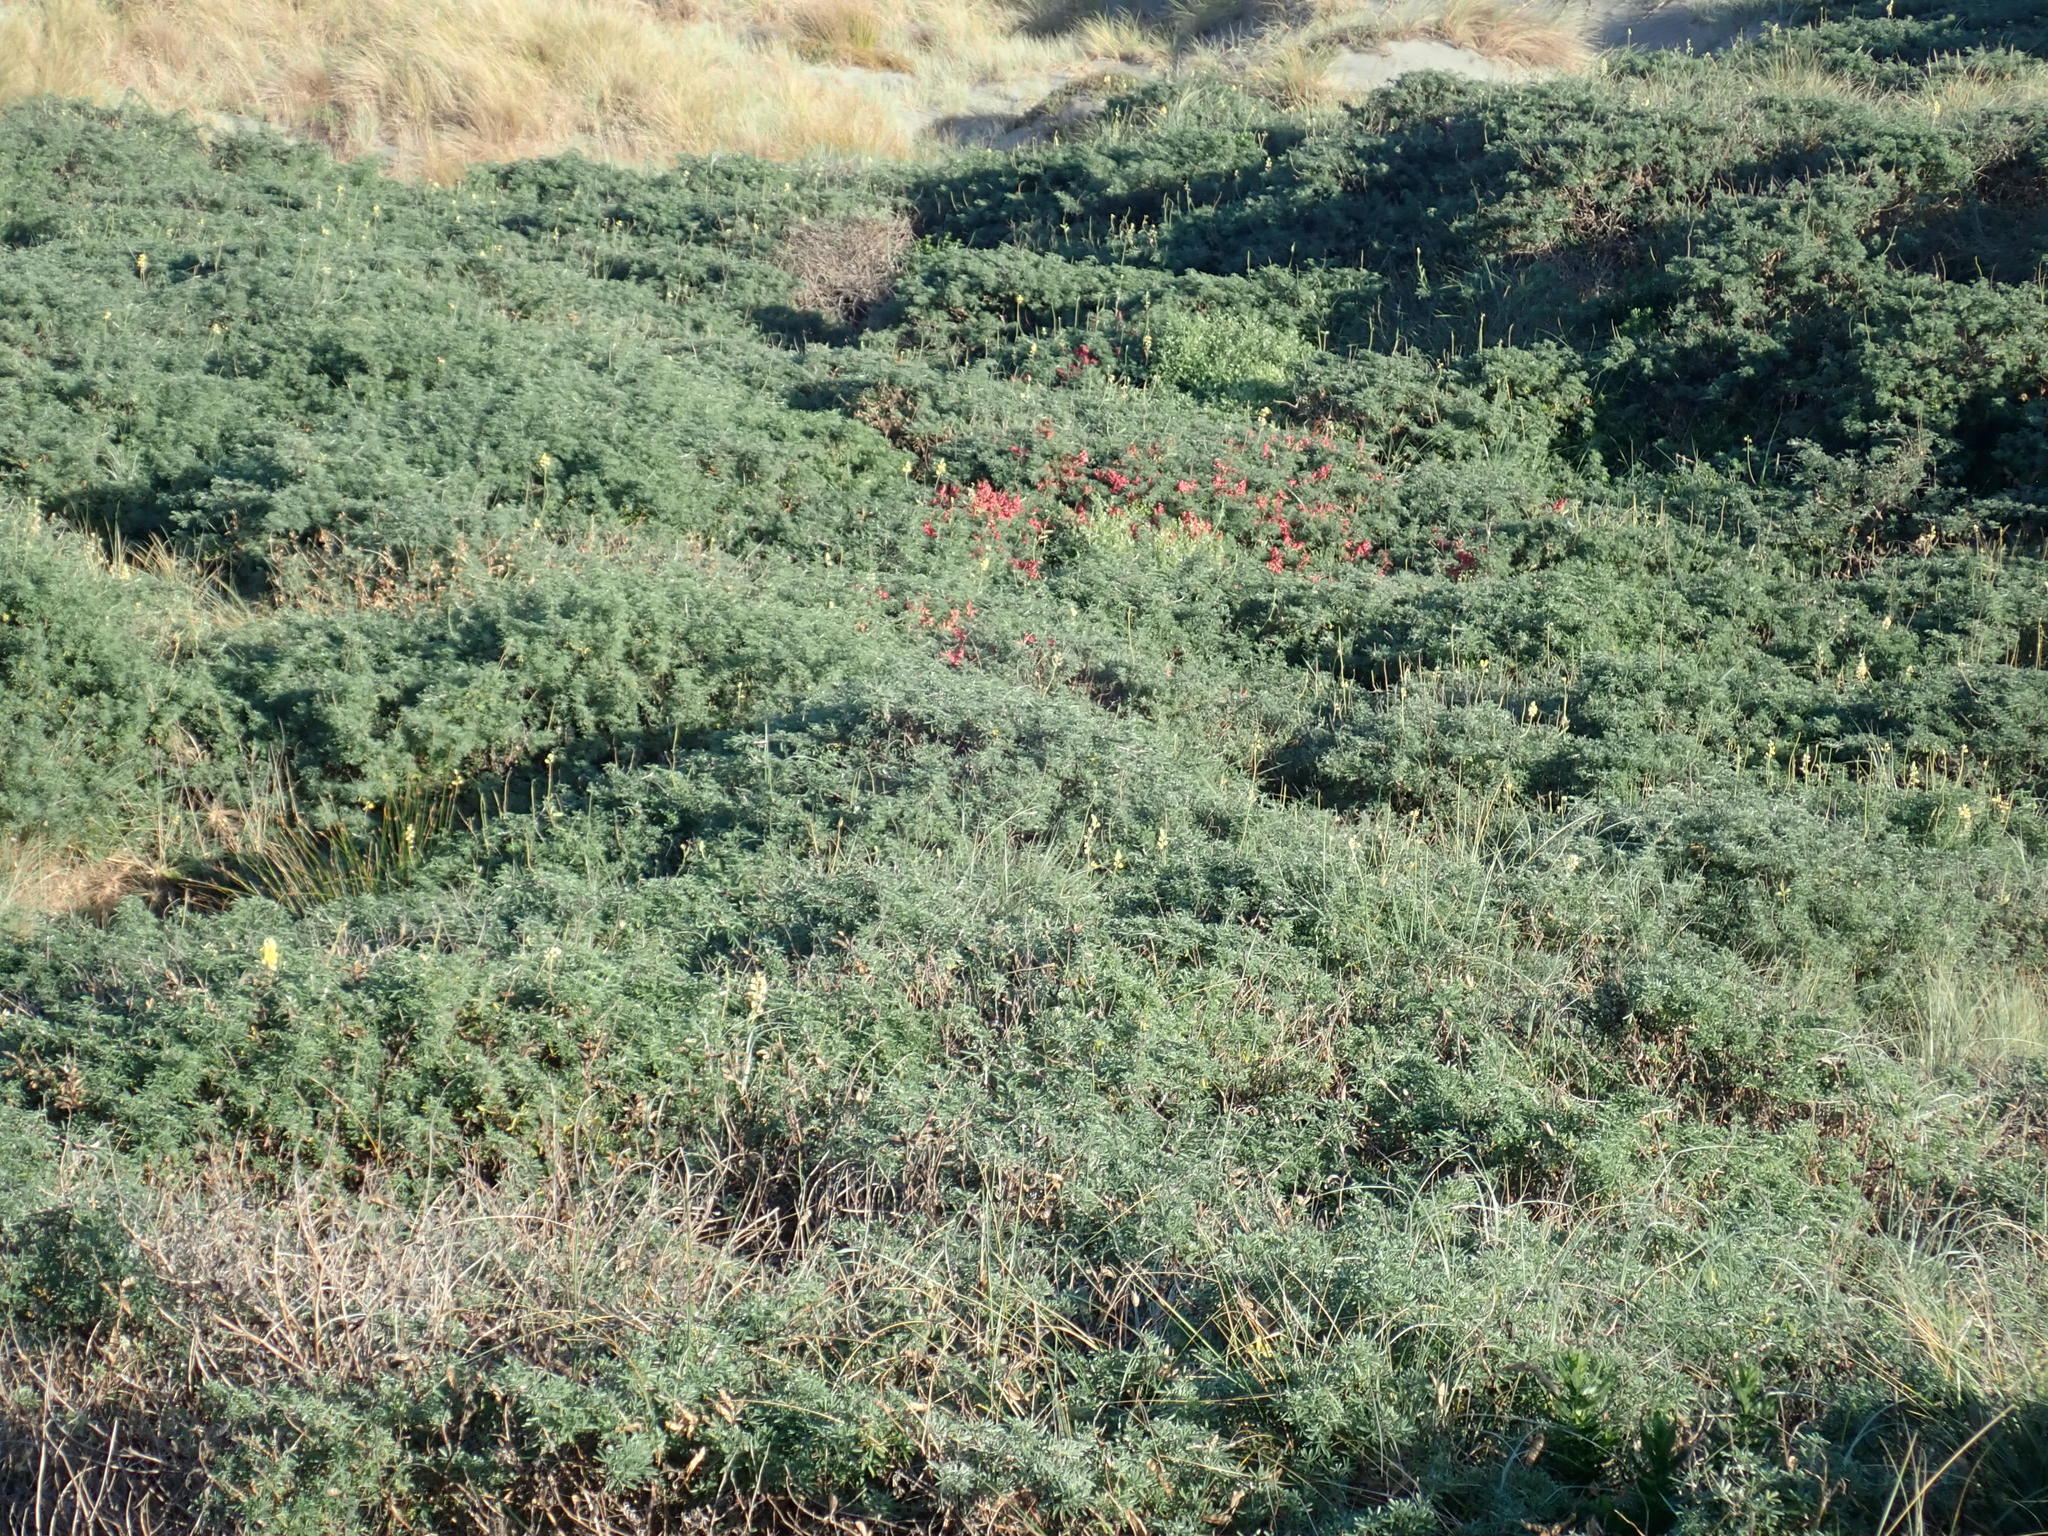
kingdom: Plantae
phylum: Tracheophyta
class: Magnoliopsida
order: Malvales
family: Thymelaeaceae
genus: Pimelea
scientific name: Pimelea villosa
